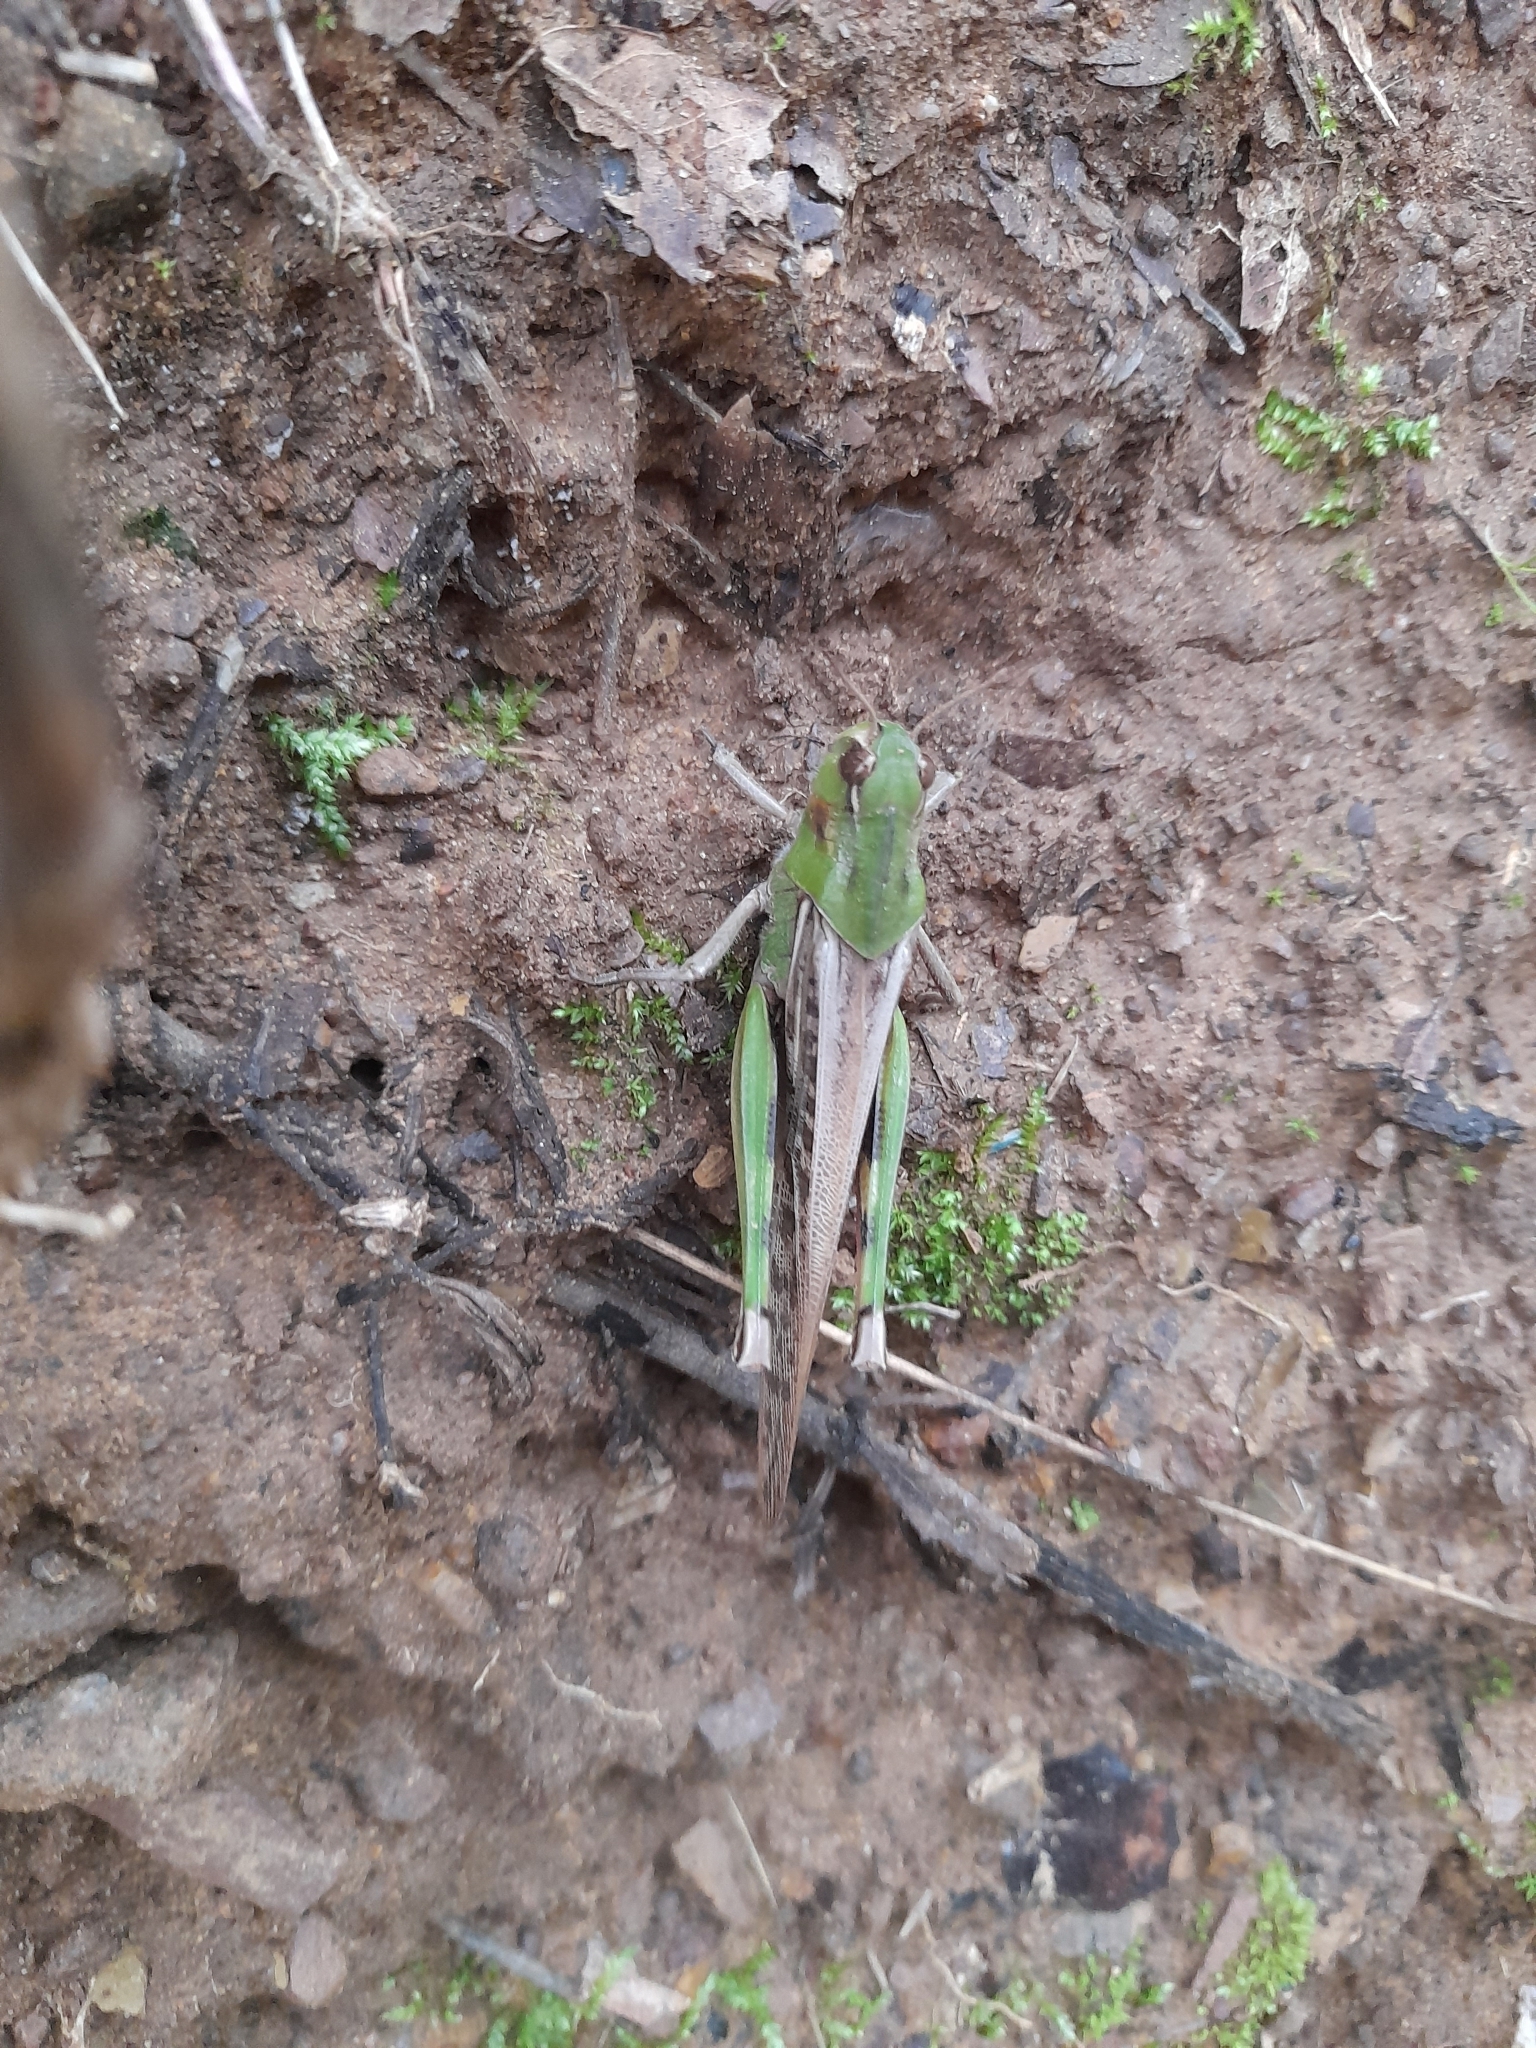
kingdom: Animalia
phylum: Arthropoda
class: Insecta
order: Orthoptera
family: Acrididae
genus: Locusta
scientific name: Locusta migratoria
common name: Migratory locust
